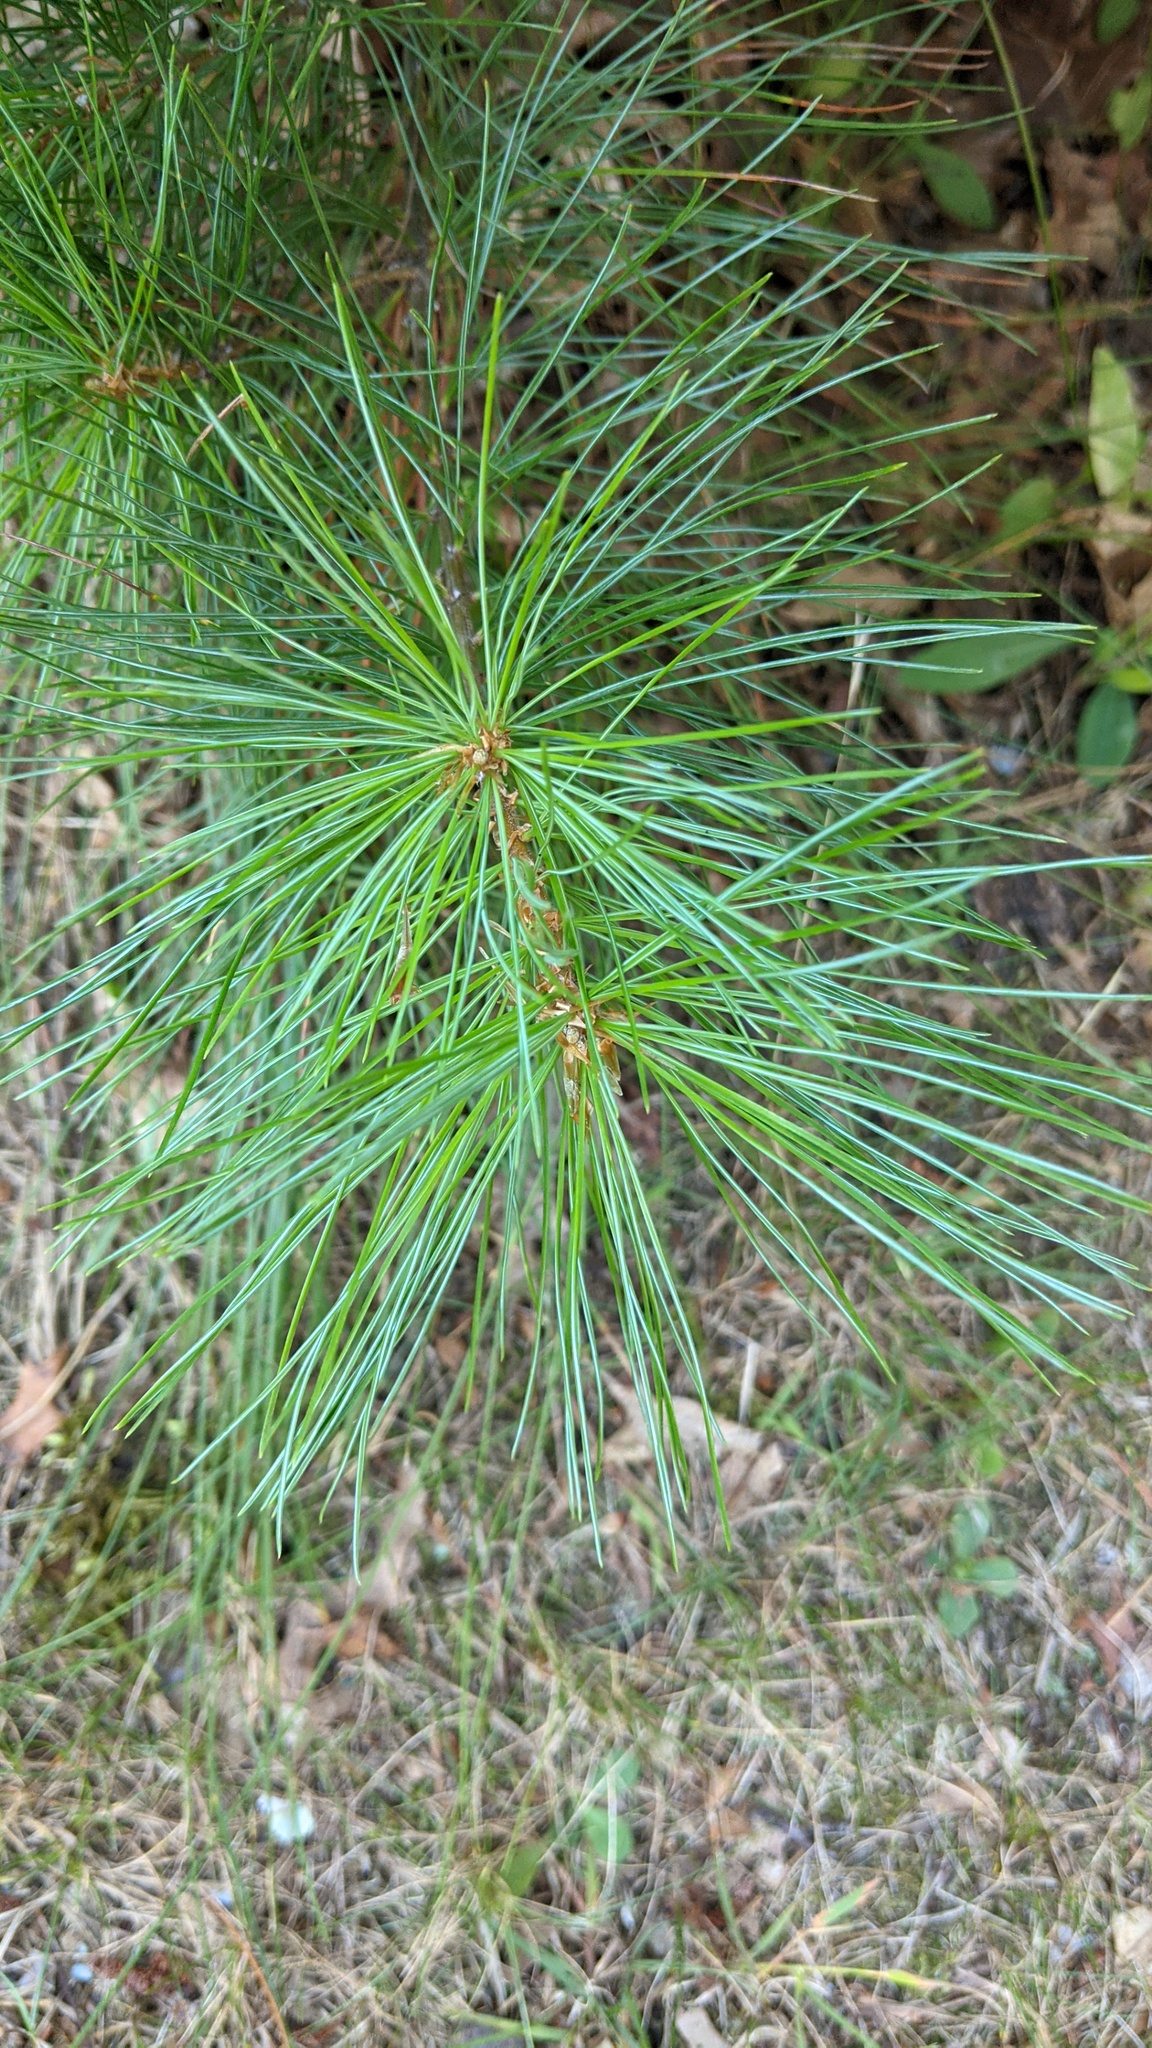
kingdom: Plantae
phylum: Tracheophyta
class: Pinopsida
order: Pinales
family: Pinaceae
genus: Pinus
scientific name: Pinus strobus
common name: Weymouth pine
